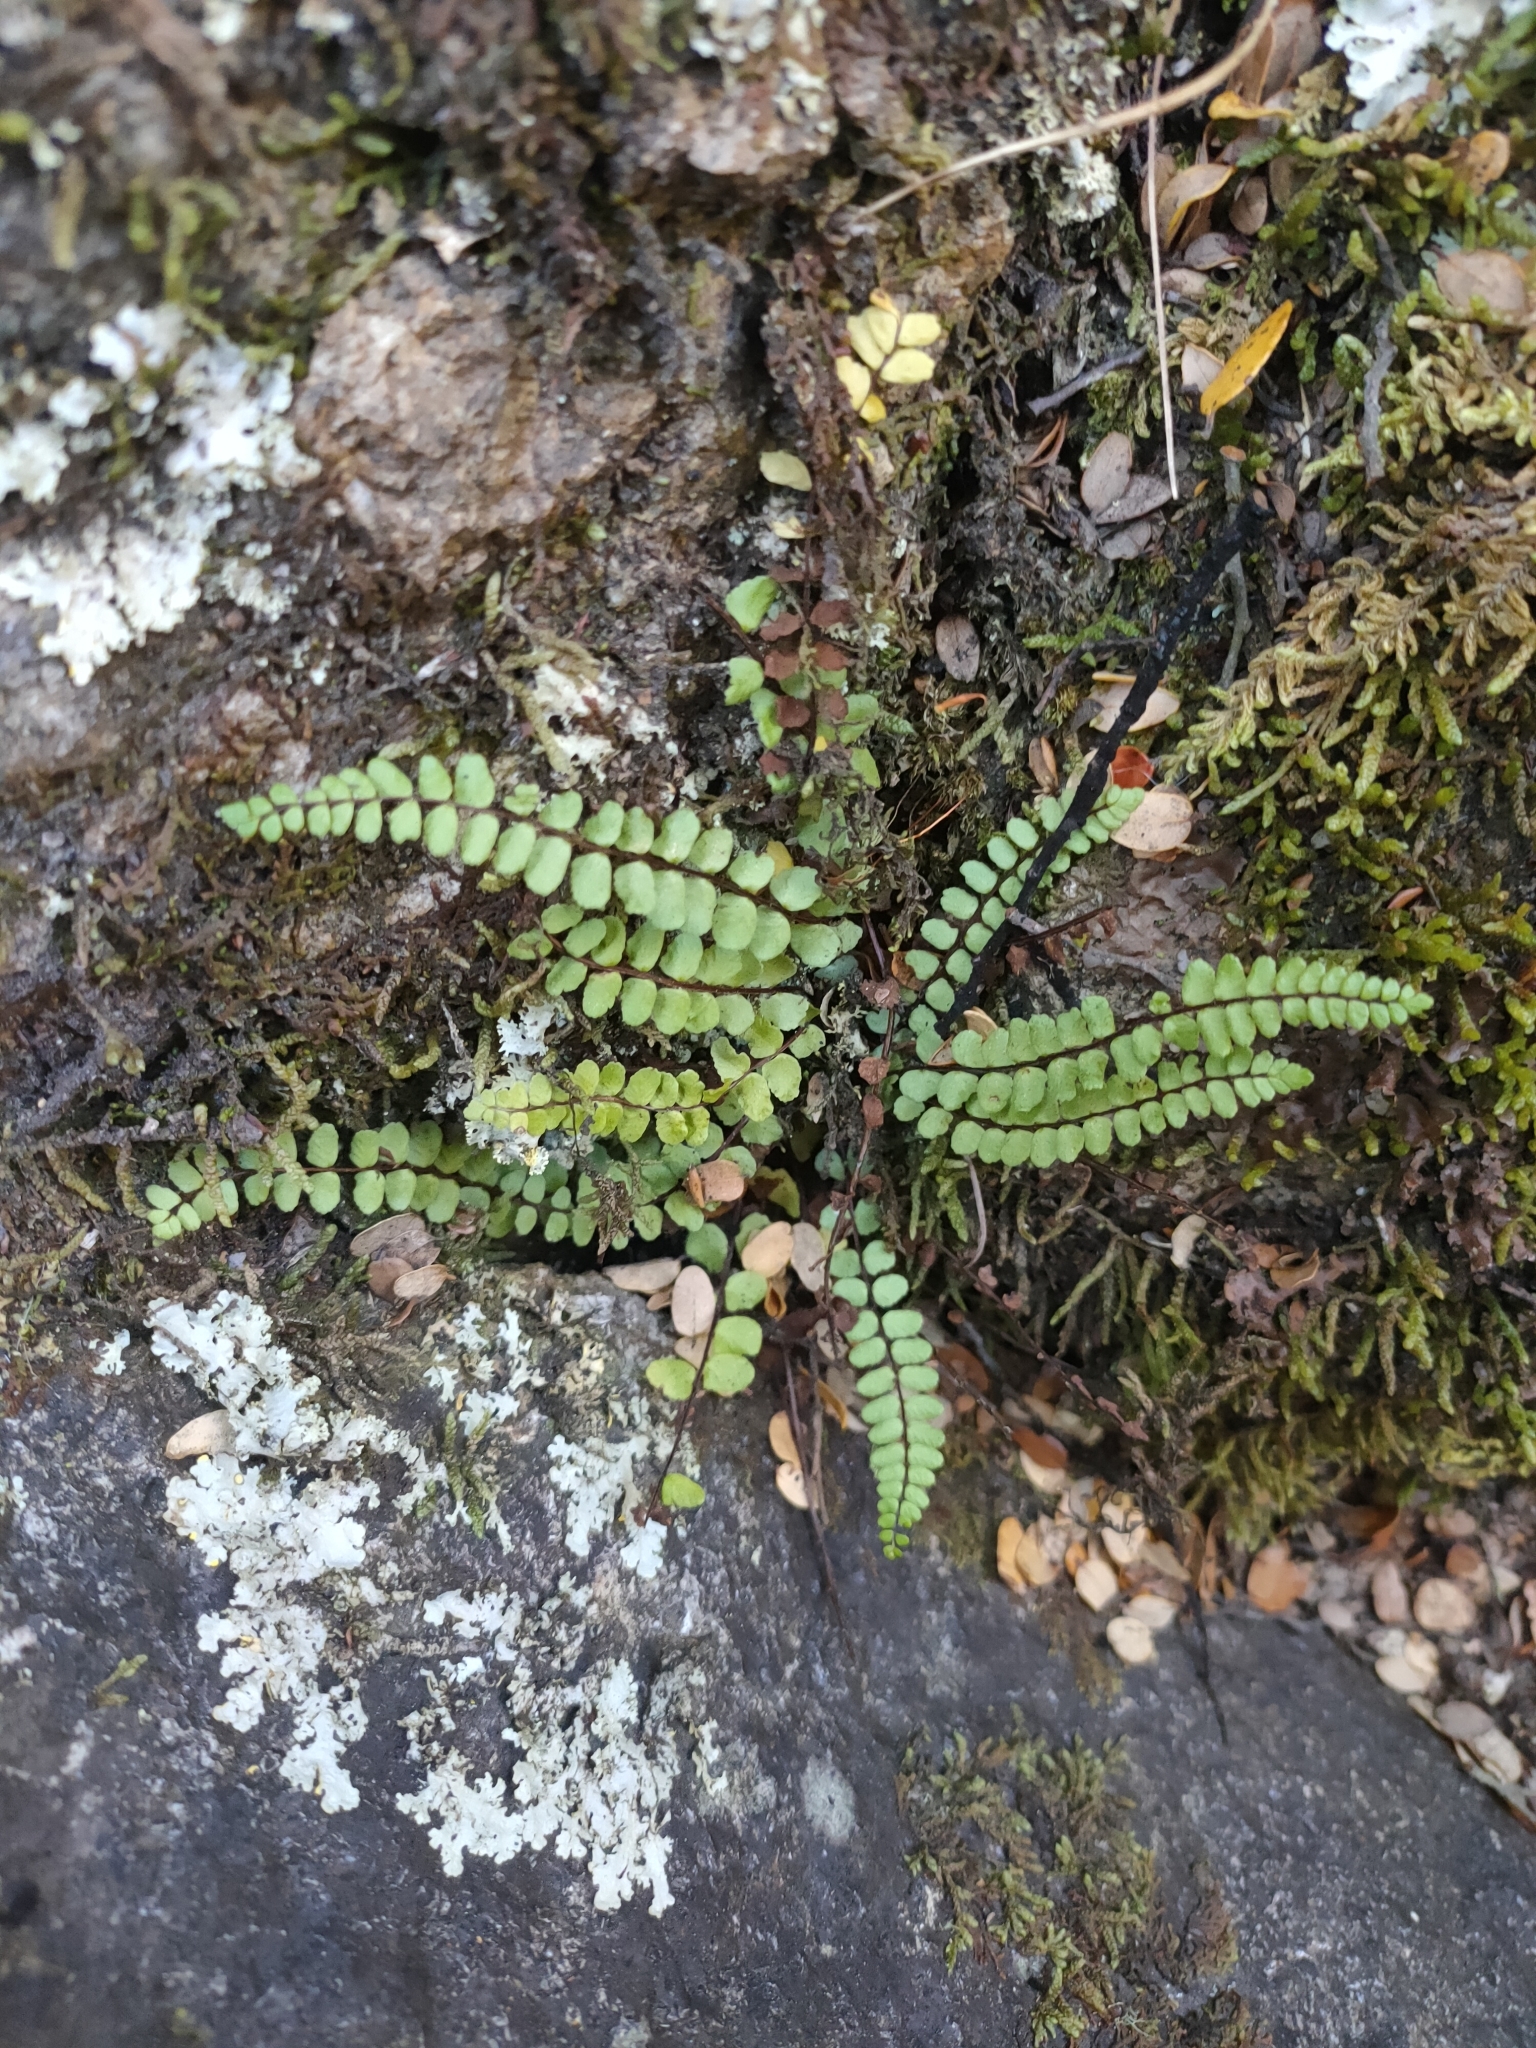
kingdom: Plantae
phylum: Tracheophyta
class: Polypodiopsida
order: Polypodiales
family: Aspleniaceae
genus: Asplenium
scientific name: Asplenium trichomanes
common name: Maidenhair spleenwort
